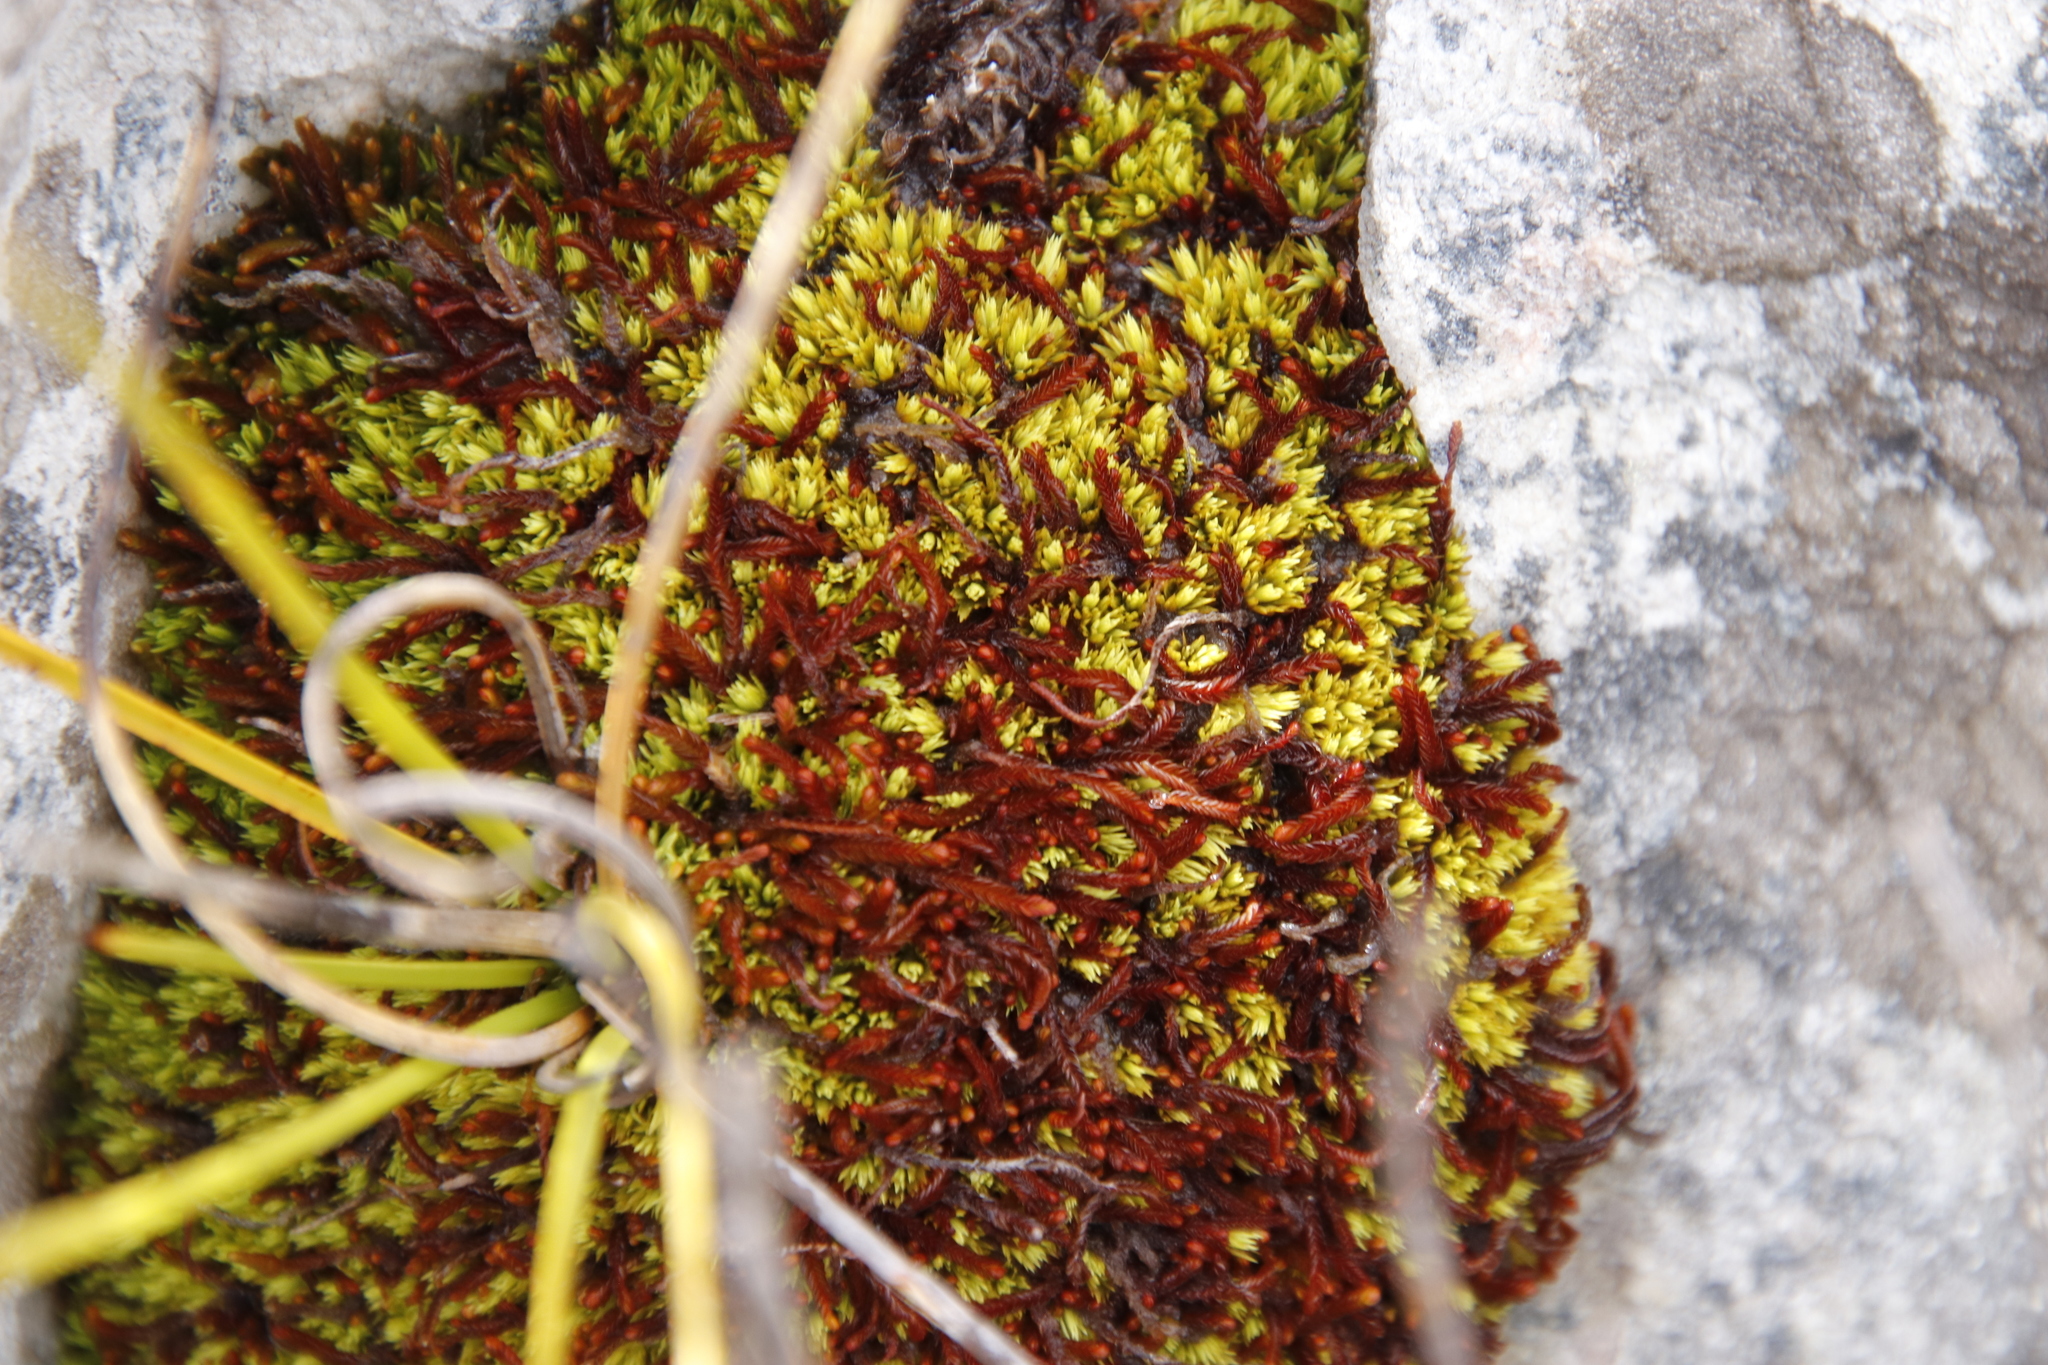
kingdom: Plantae
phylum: Bryophyta
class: Bryopsida
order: Dicranales
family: Hypodontiaceae
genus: Hypodontium
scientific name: Hypodontium pomiforme
